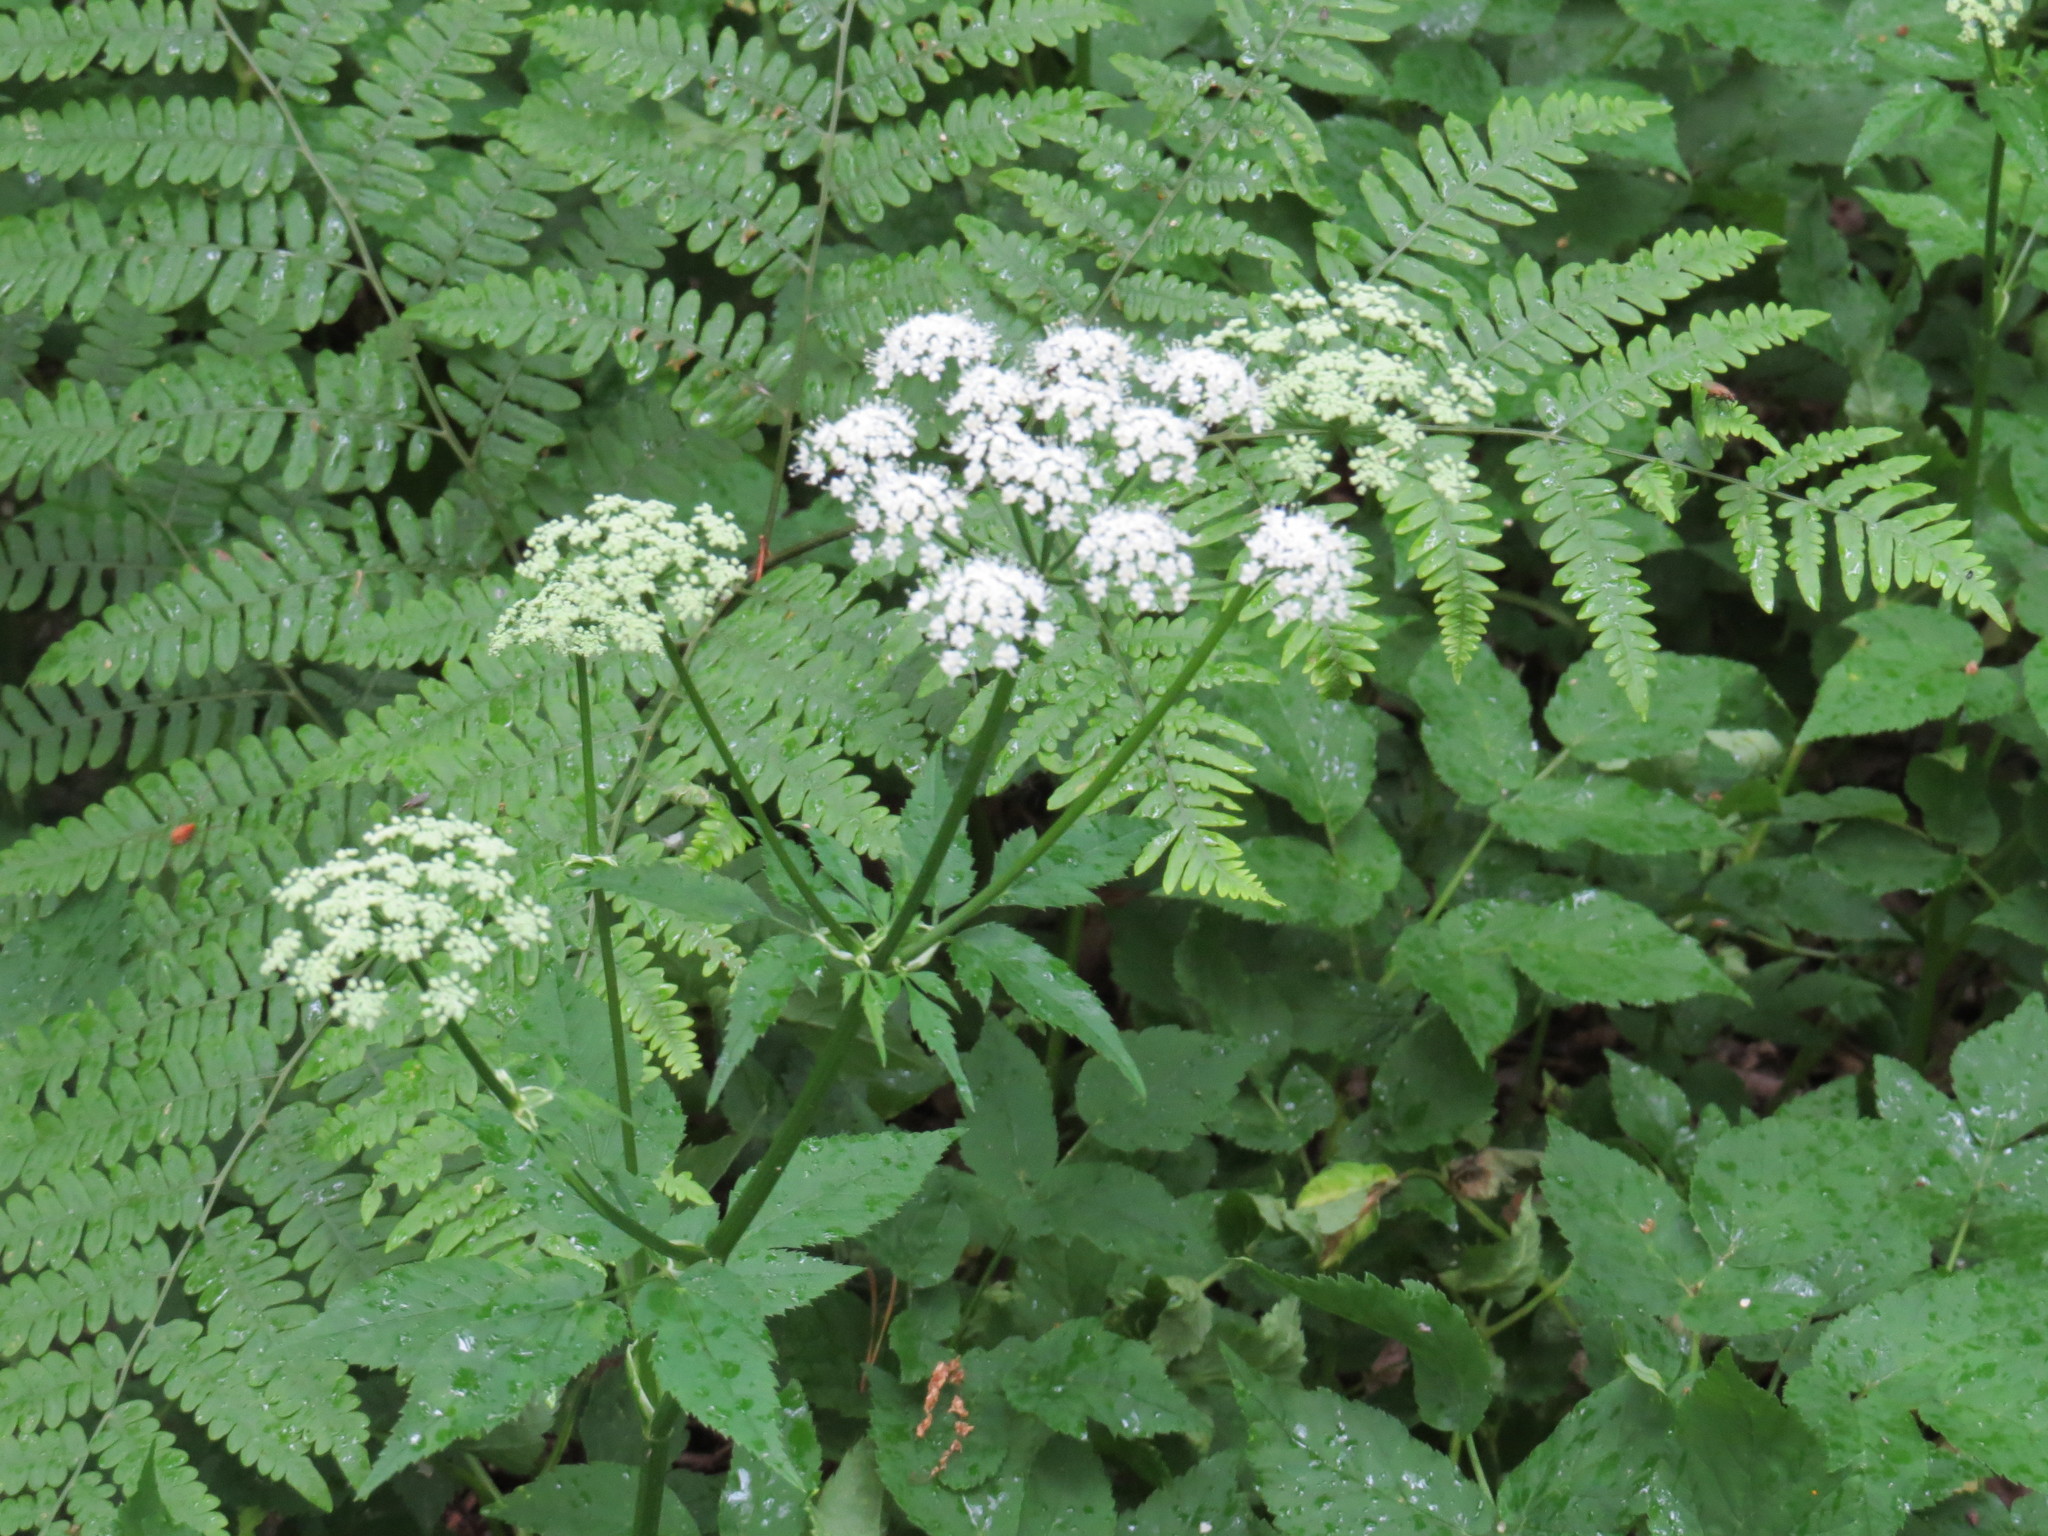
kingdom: Plantae
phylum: Tracheophyta
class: Magnoliopsida
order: Apiales
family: Apiaceae
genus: Aegopodium
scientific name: Aegopodium podagraria
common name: Ground-elder
